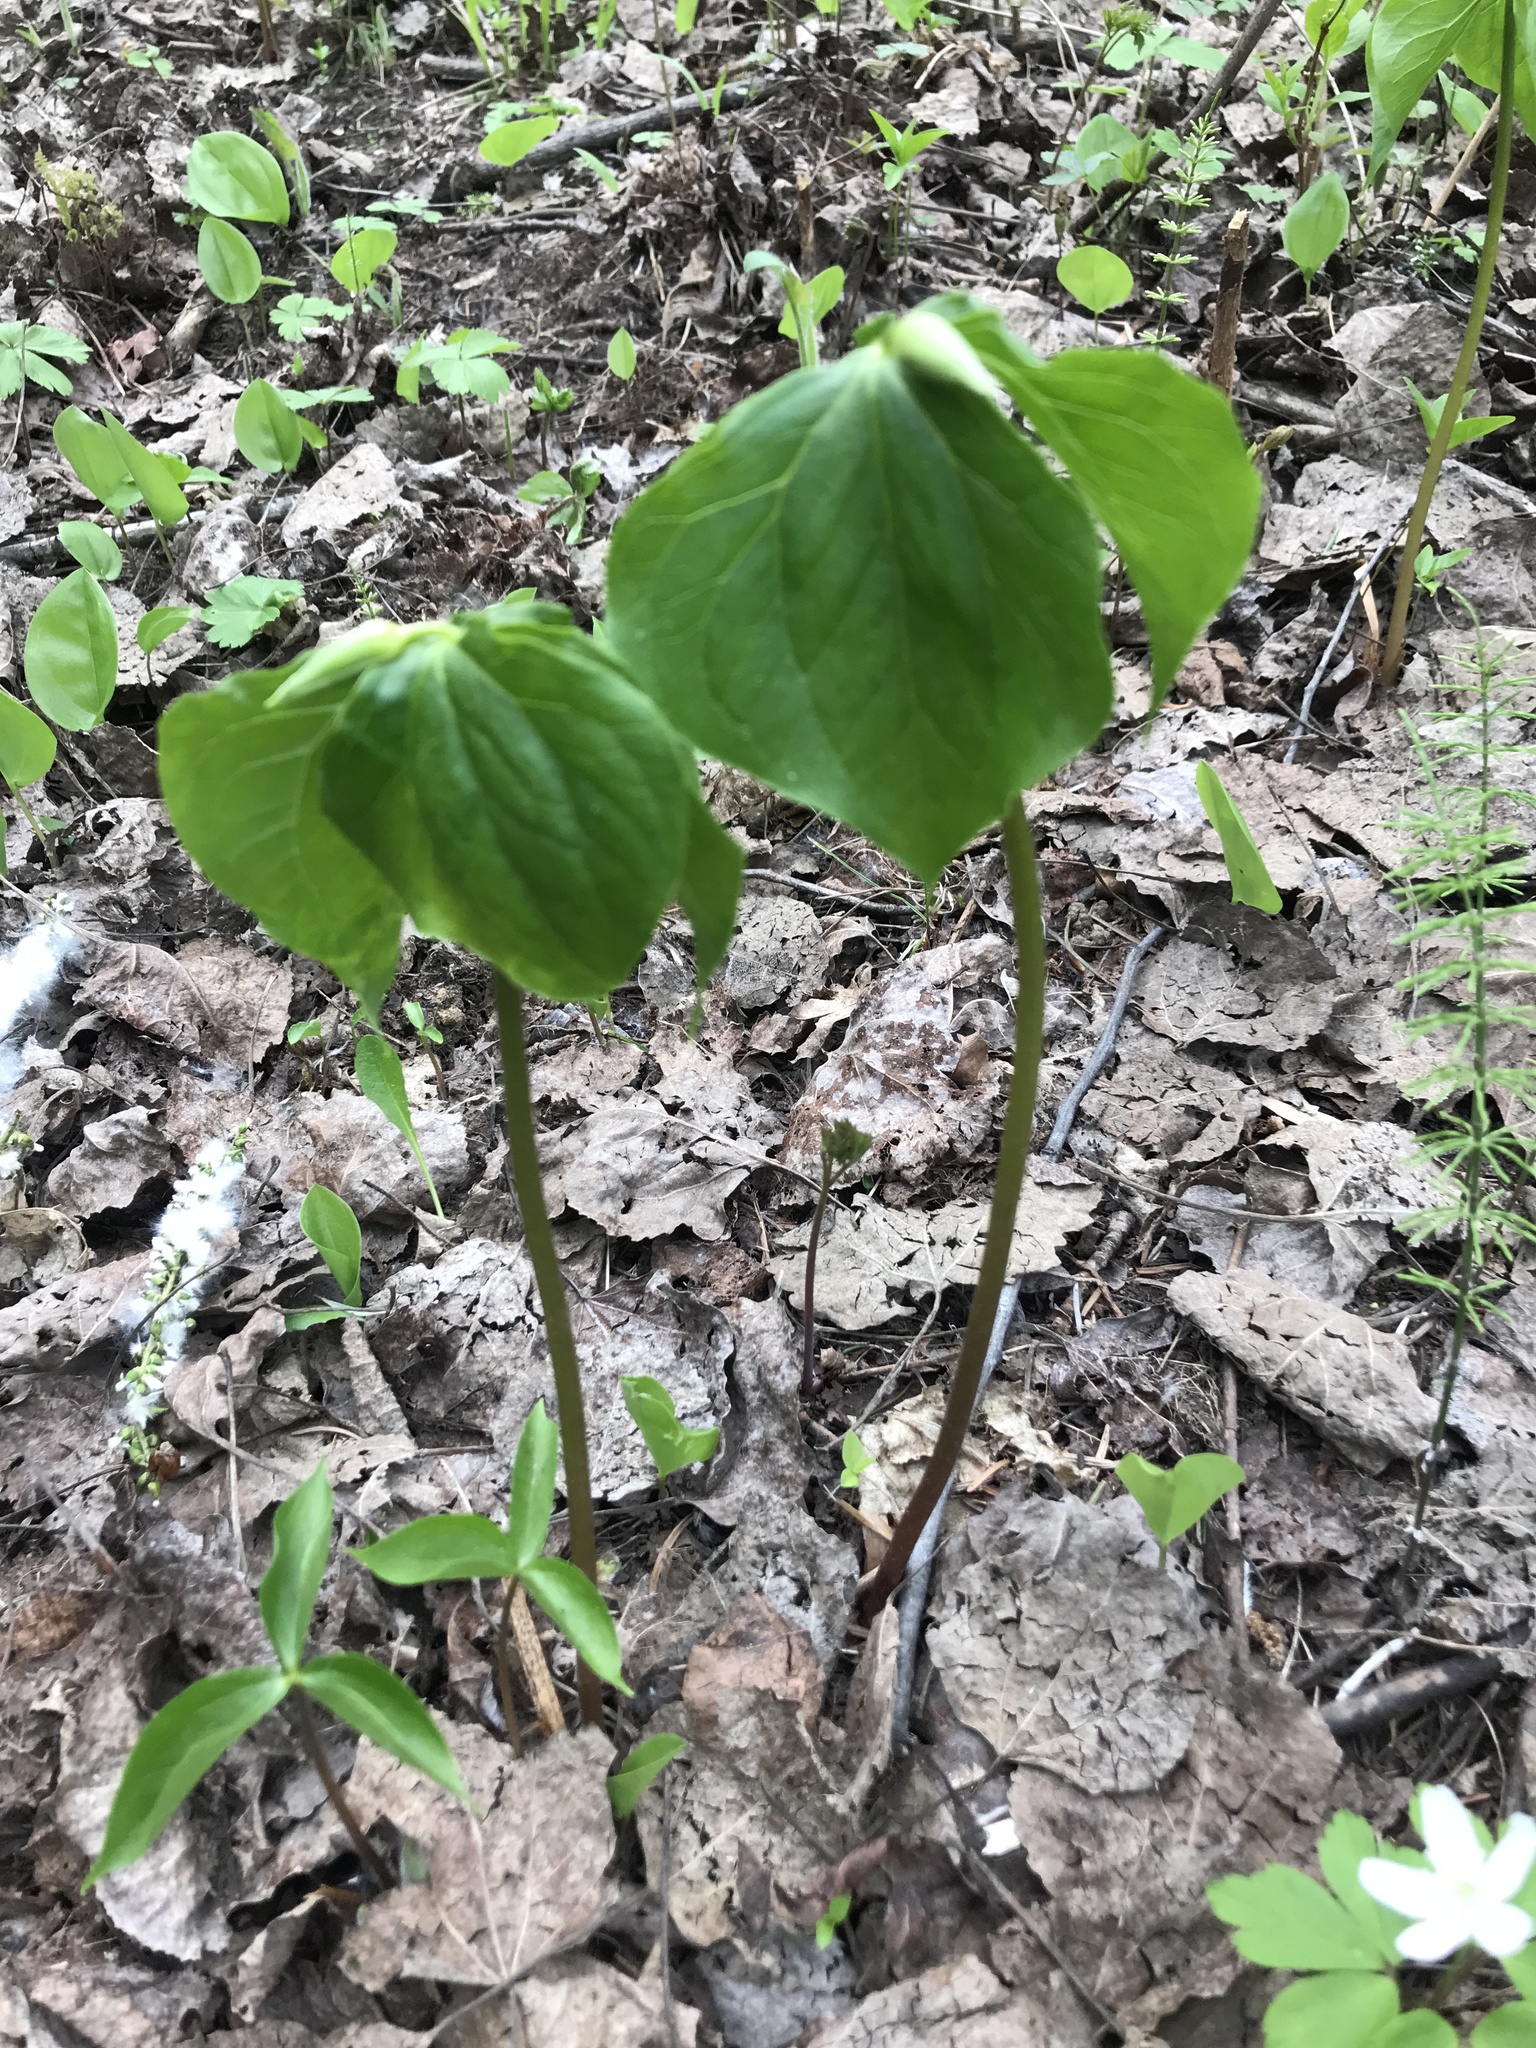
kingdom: Plantae
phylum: Tracheophyta
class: Liliopsida
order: Liliales
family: Melanthiaceae
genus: Trillium
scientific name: Trillium cernuum
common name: Nodding trillium
